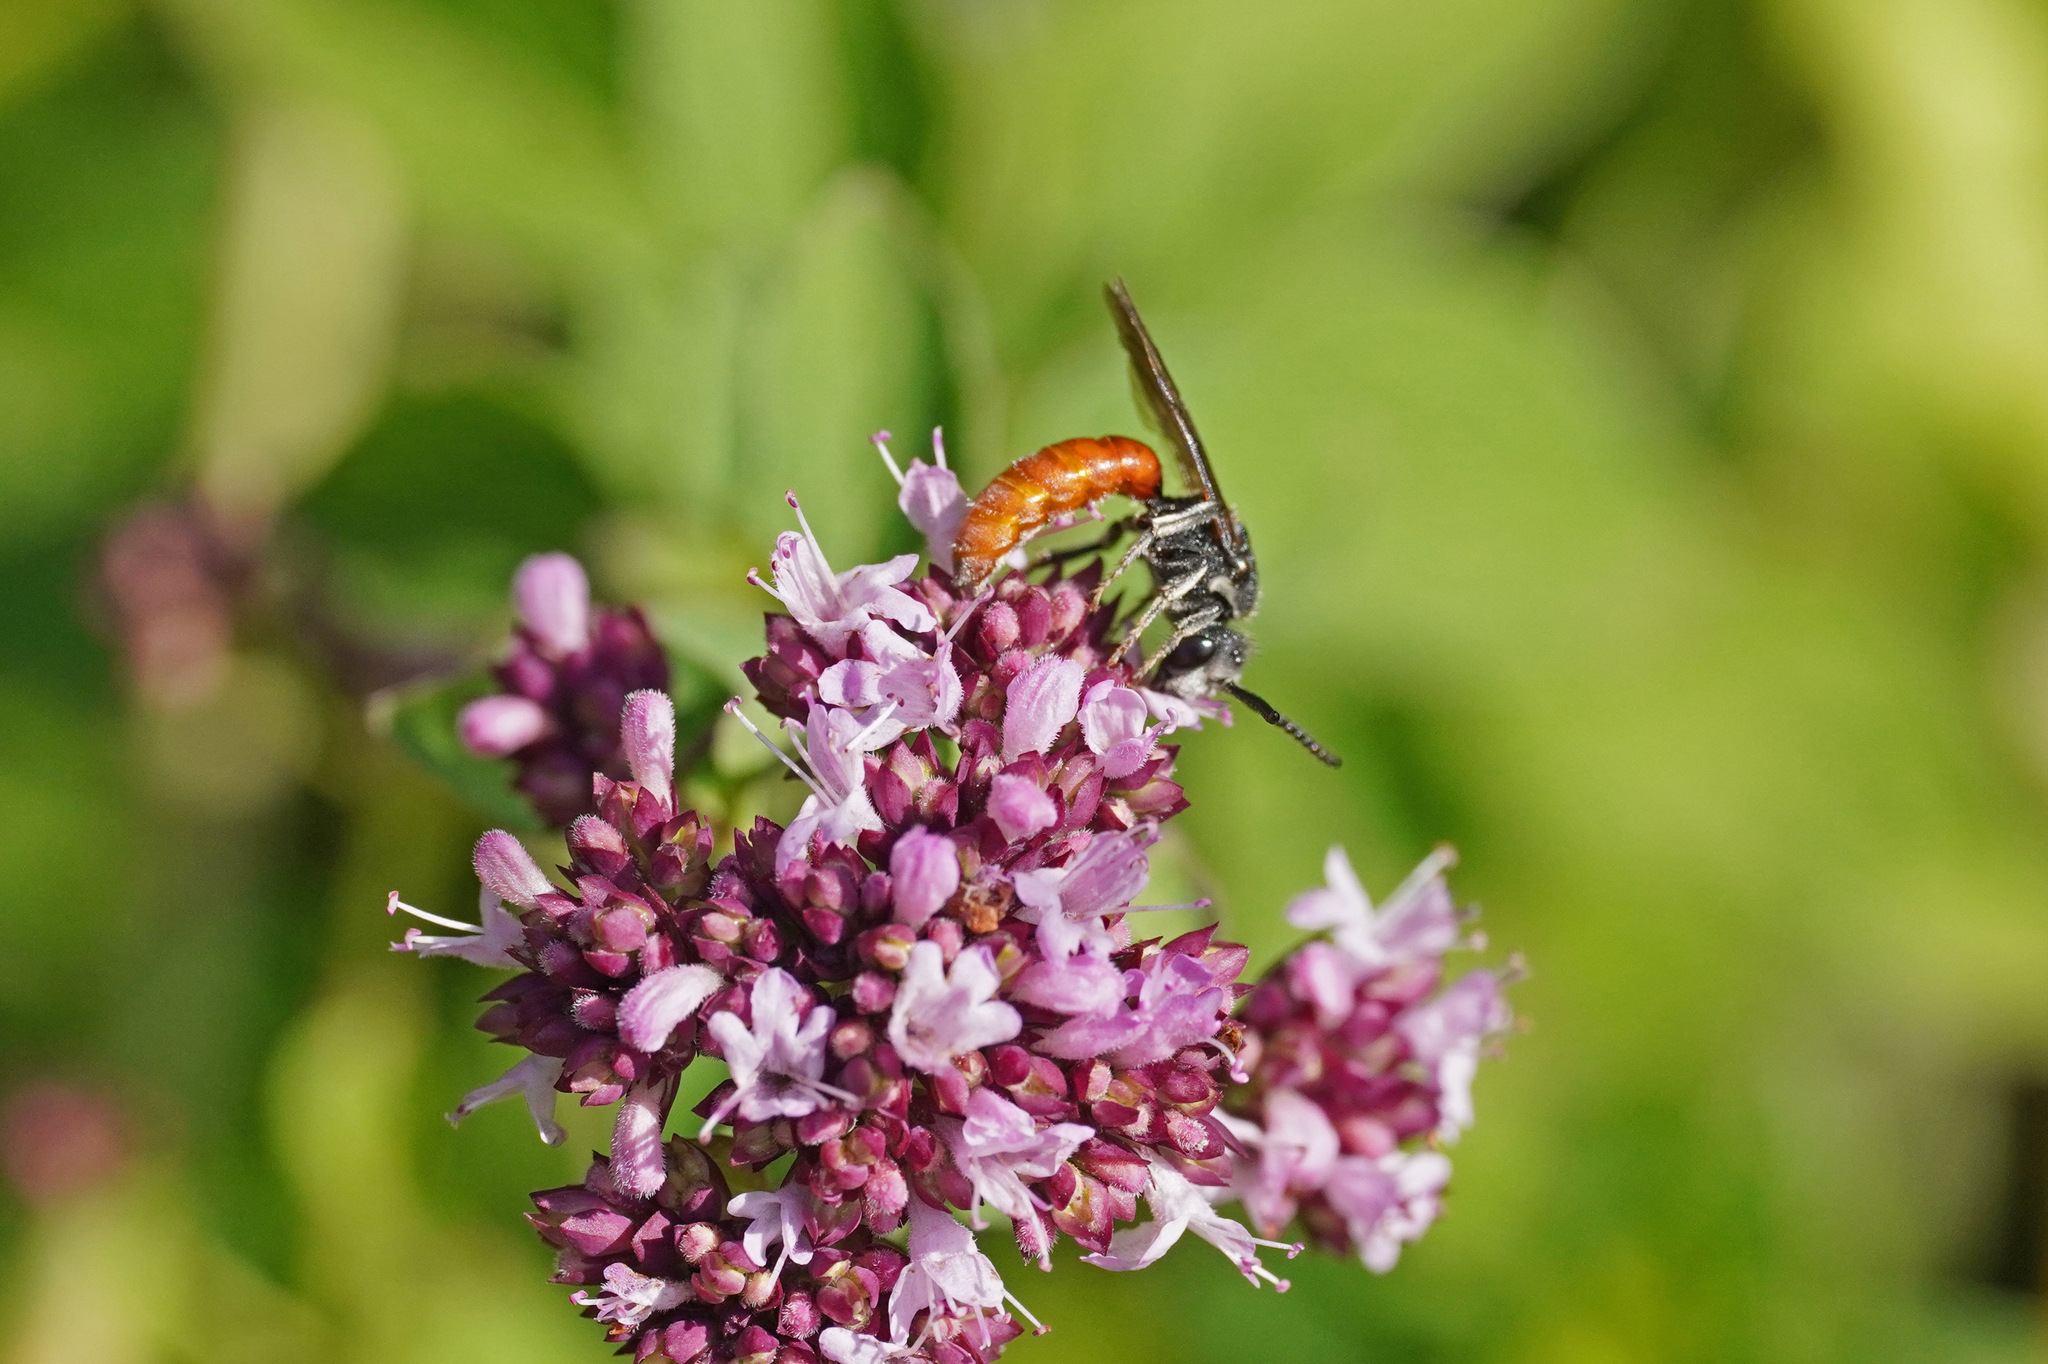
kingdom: Animalia
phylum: Arthropoda
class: Insecta
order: Hymenoptera
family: Halictidae
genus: Sphecodes
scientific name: Sphecodes albilabris
